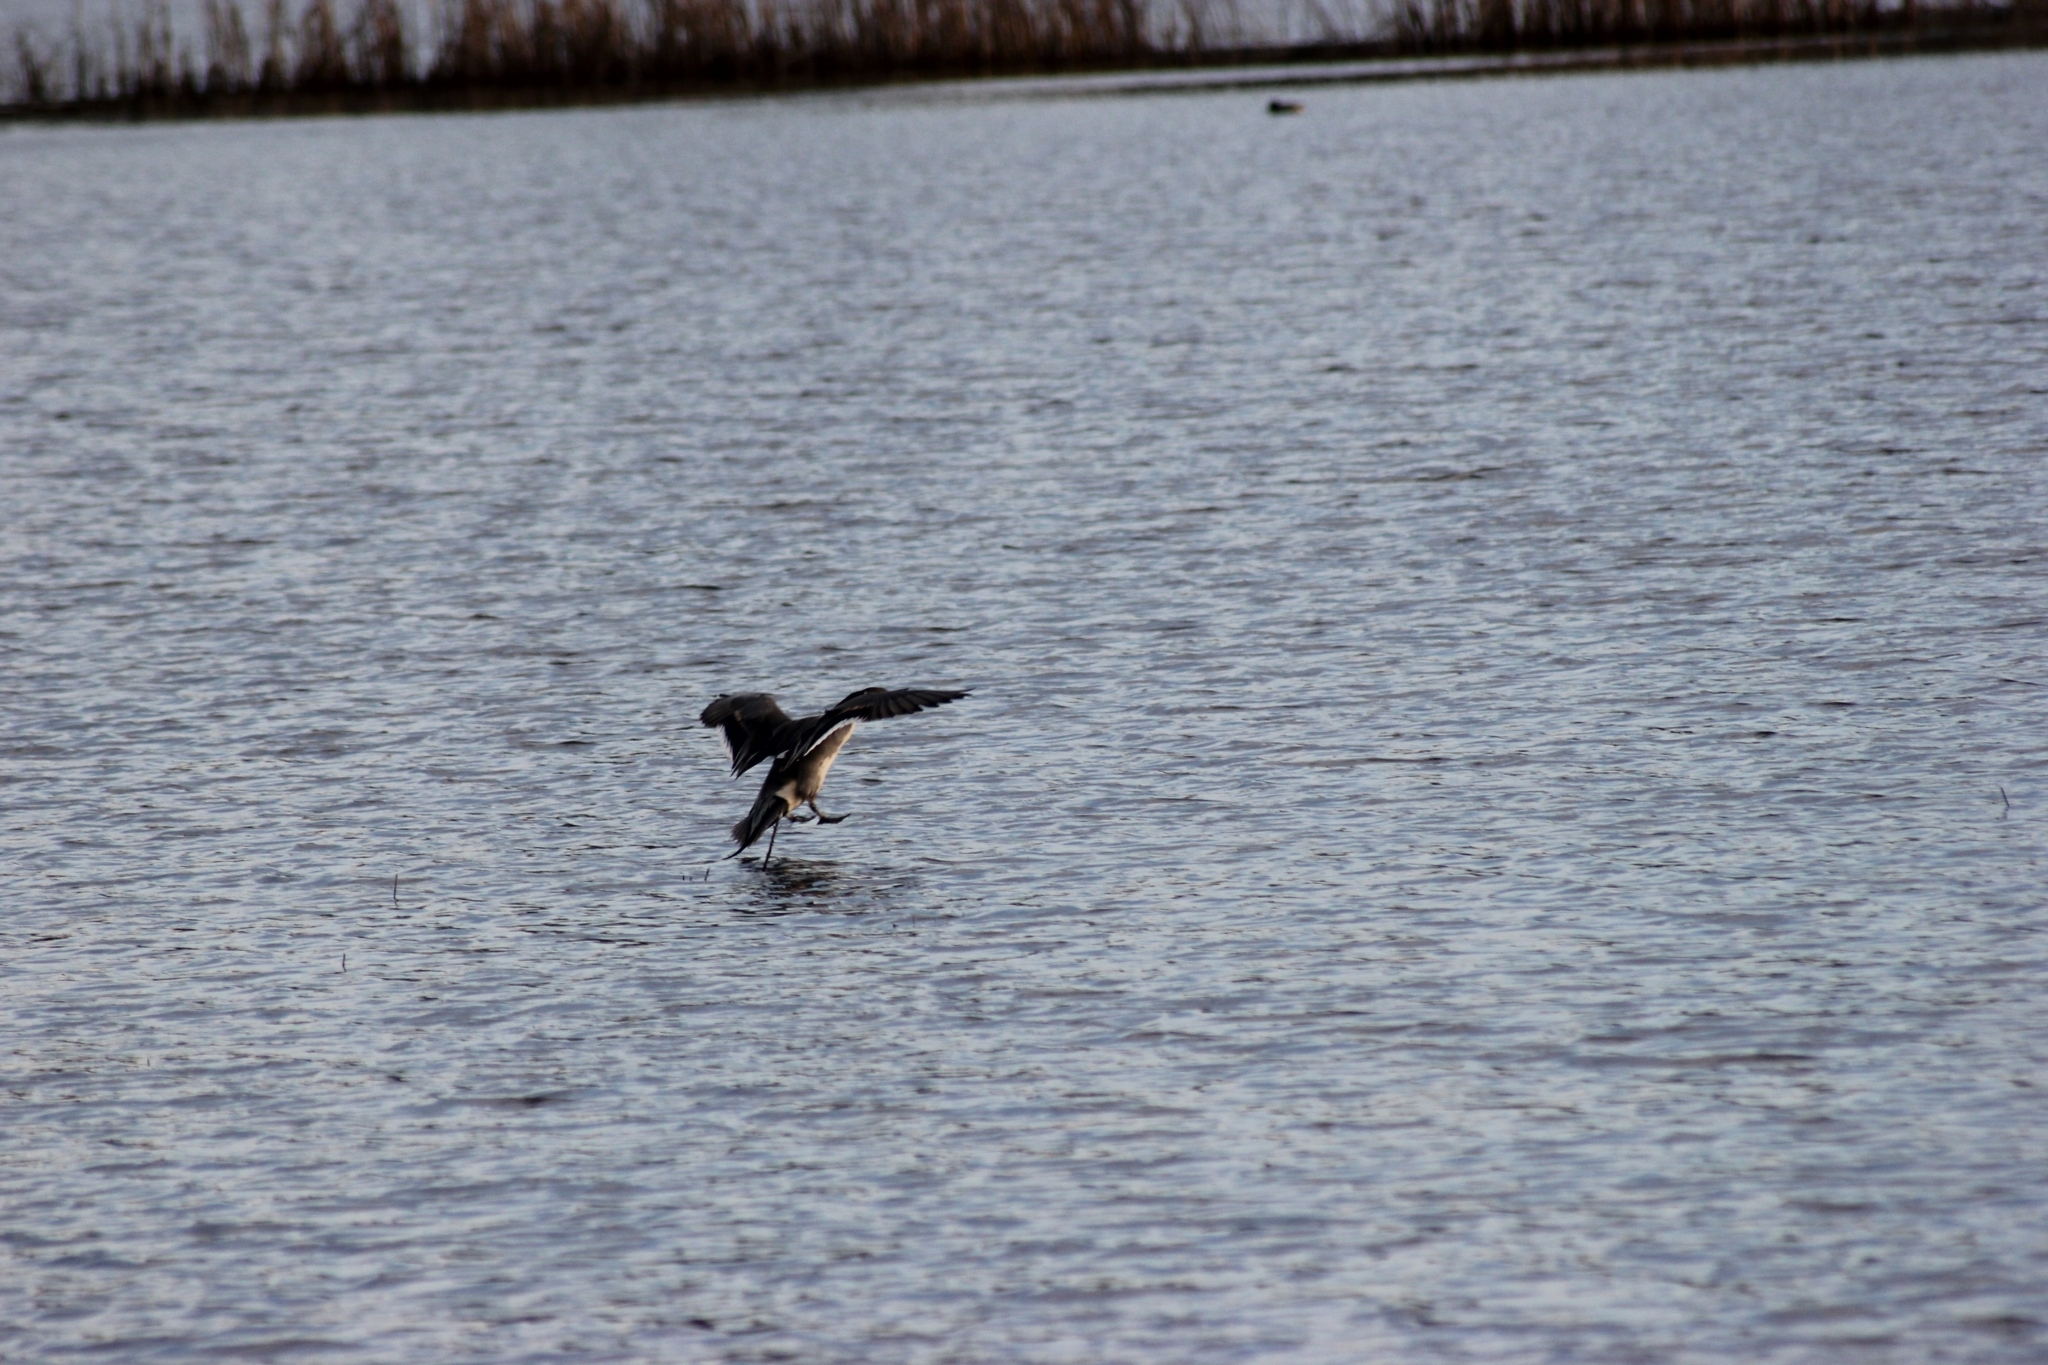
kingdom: Animalia
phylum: Chordata
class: Aves
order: Anseriformes
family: Anatidae
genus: Anas
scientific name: Anas acuta
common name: Northern pintail
